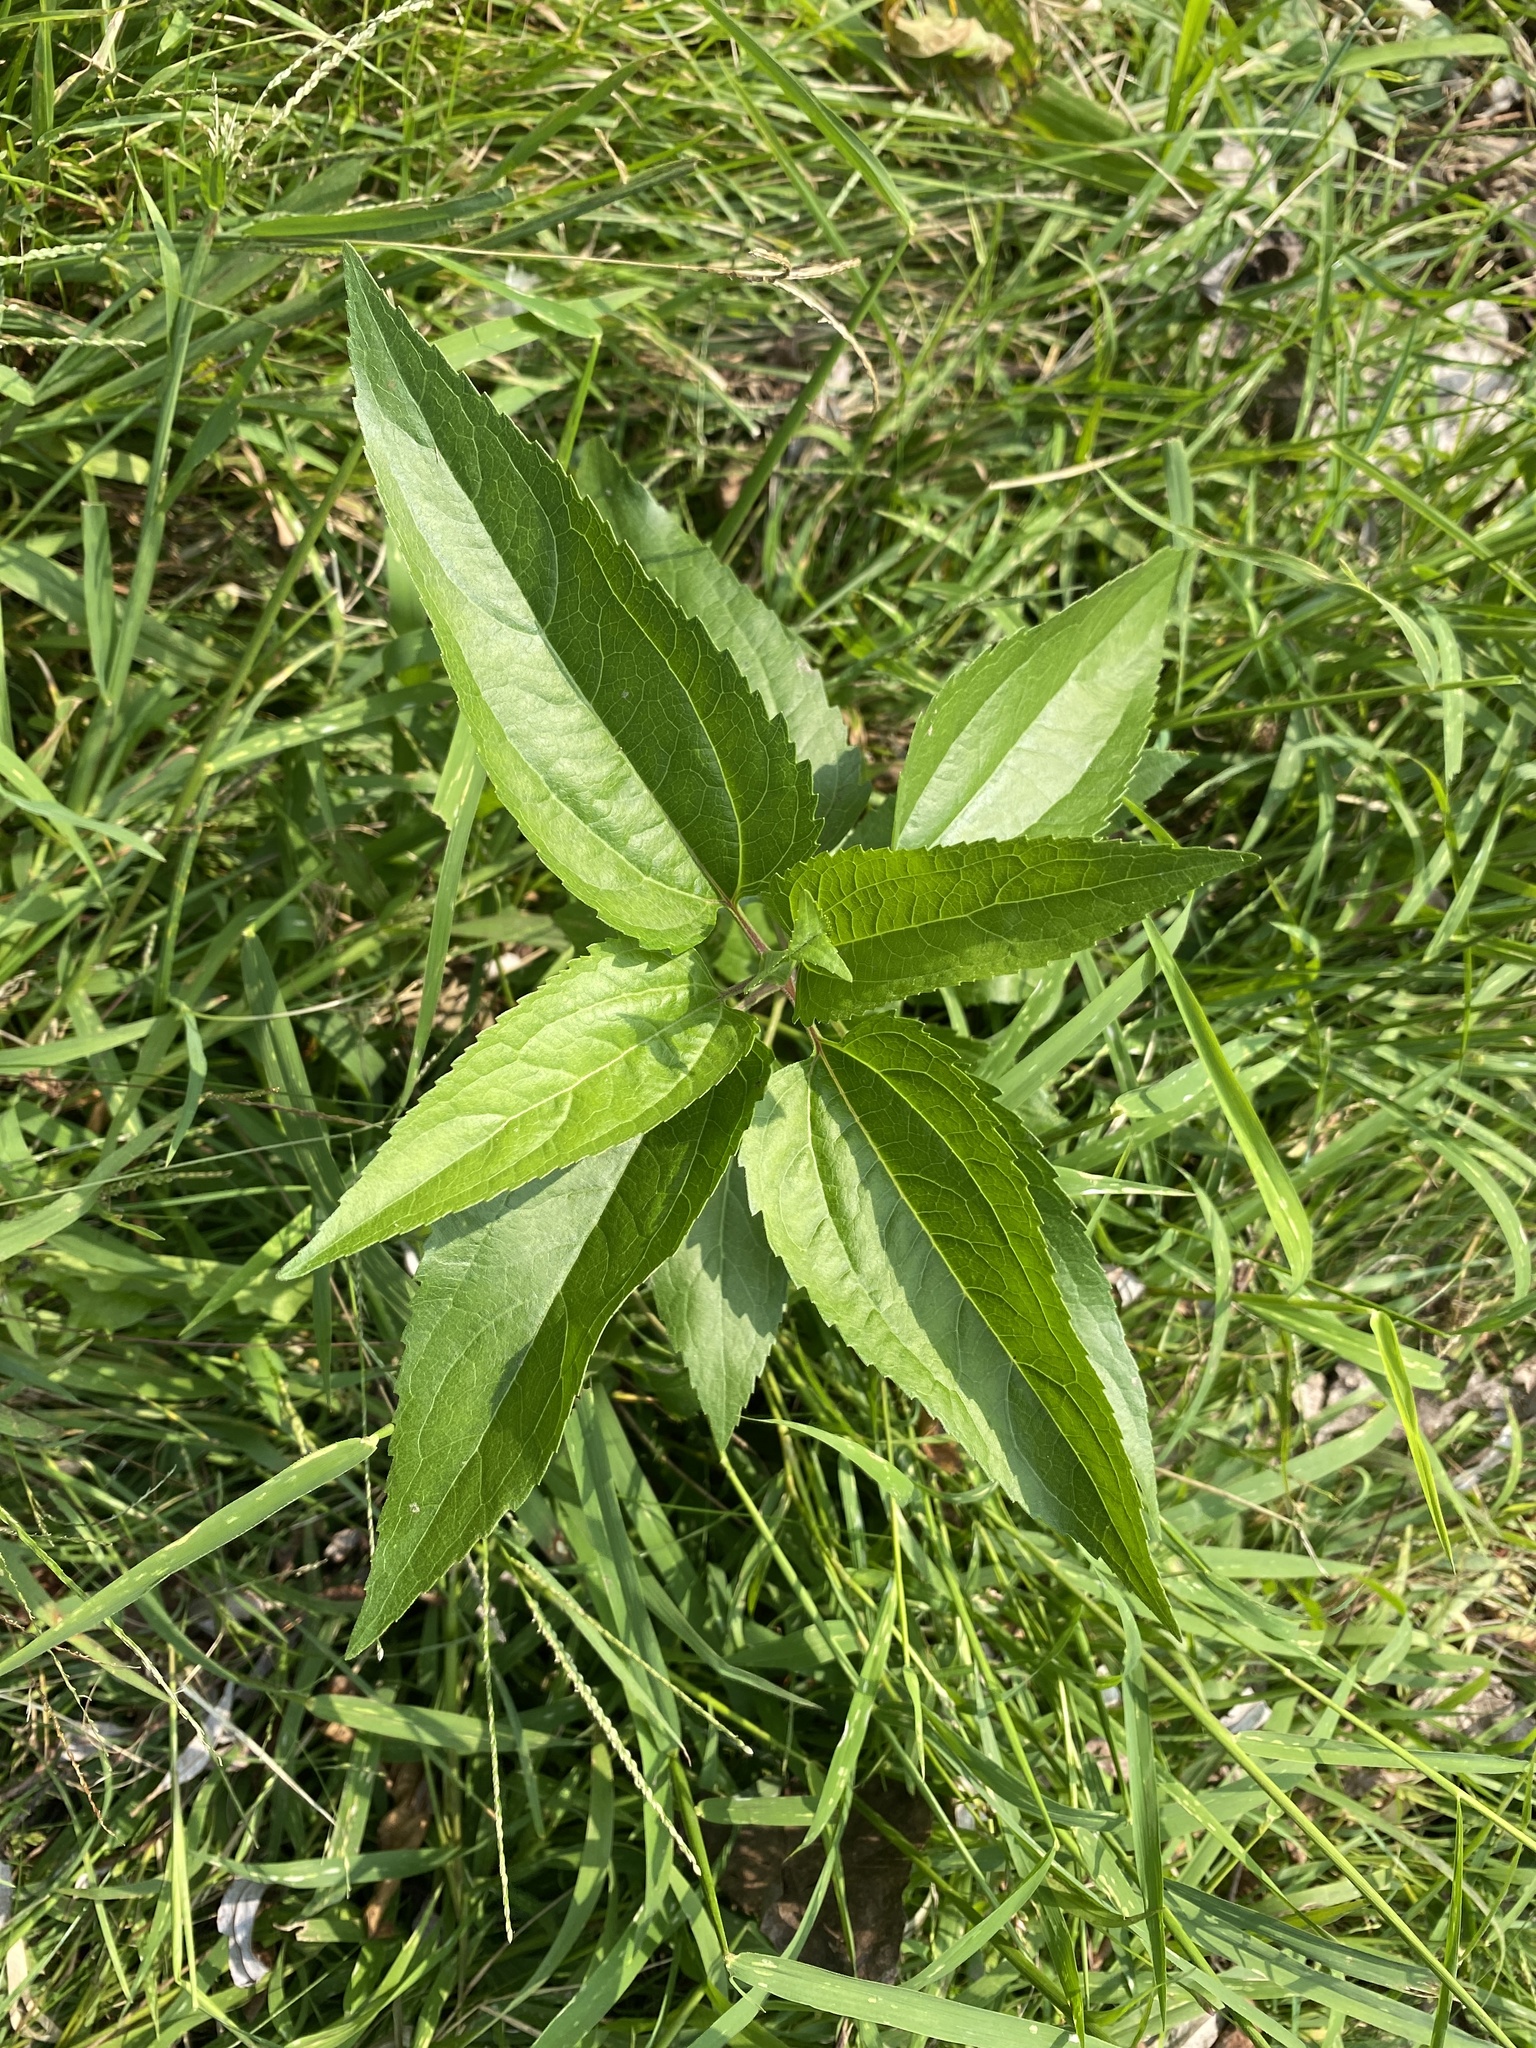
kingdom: Plantae
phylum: Tracheophyta
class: Magnoliopsida
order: Asterales
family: Asteraceae
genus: Eupatorium
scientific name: Eupatorium serotinum
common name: Late boneset
